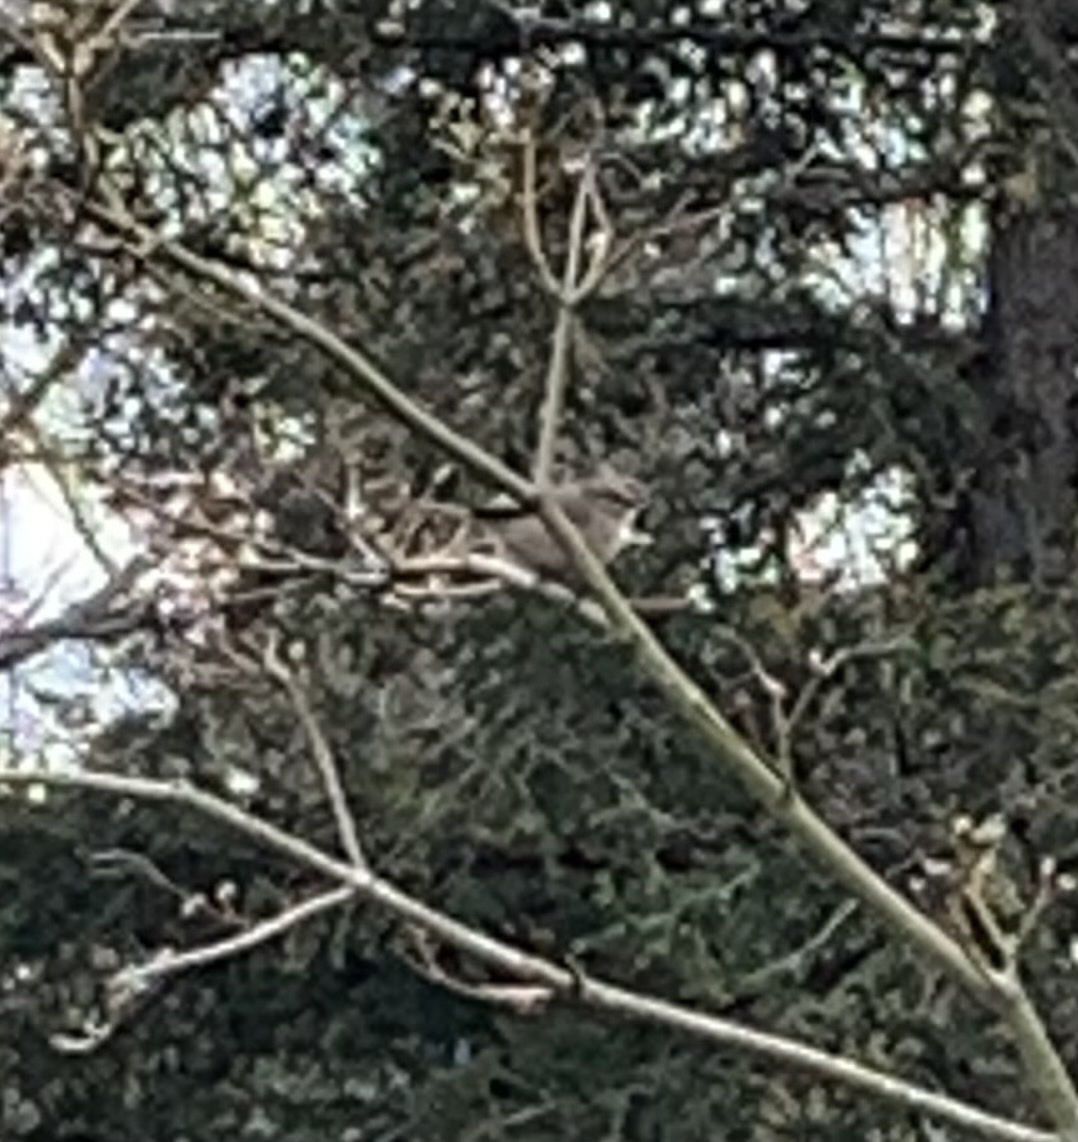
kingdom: Animalia
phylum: Chordata
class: Aves
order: Passeriformes
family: Aegithalidae
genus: Psaltriparus
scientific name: Psaltriparus minimus
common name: American bushtit
